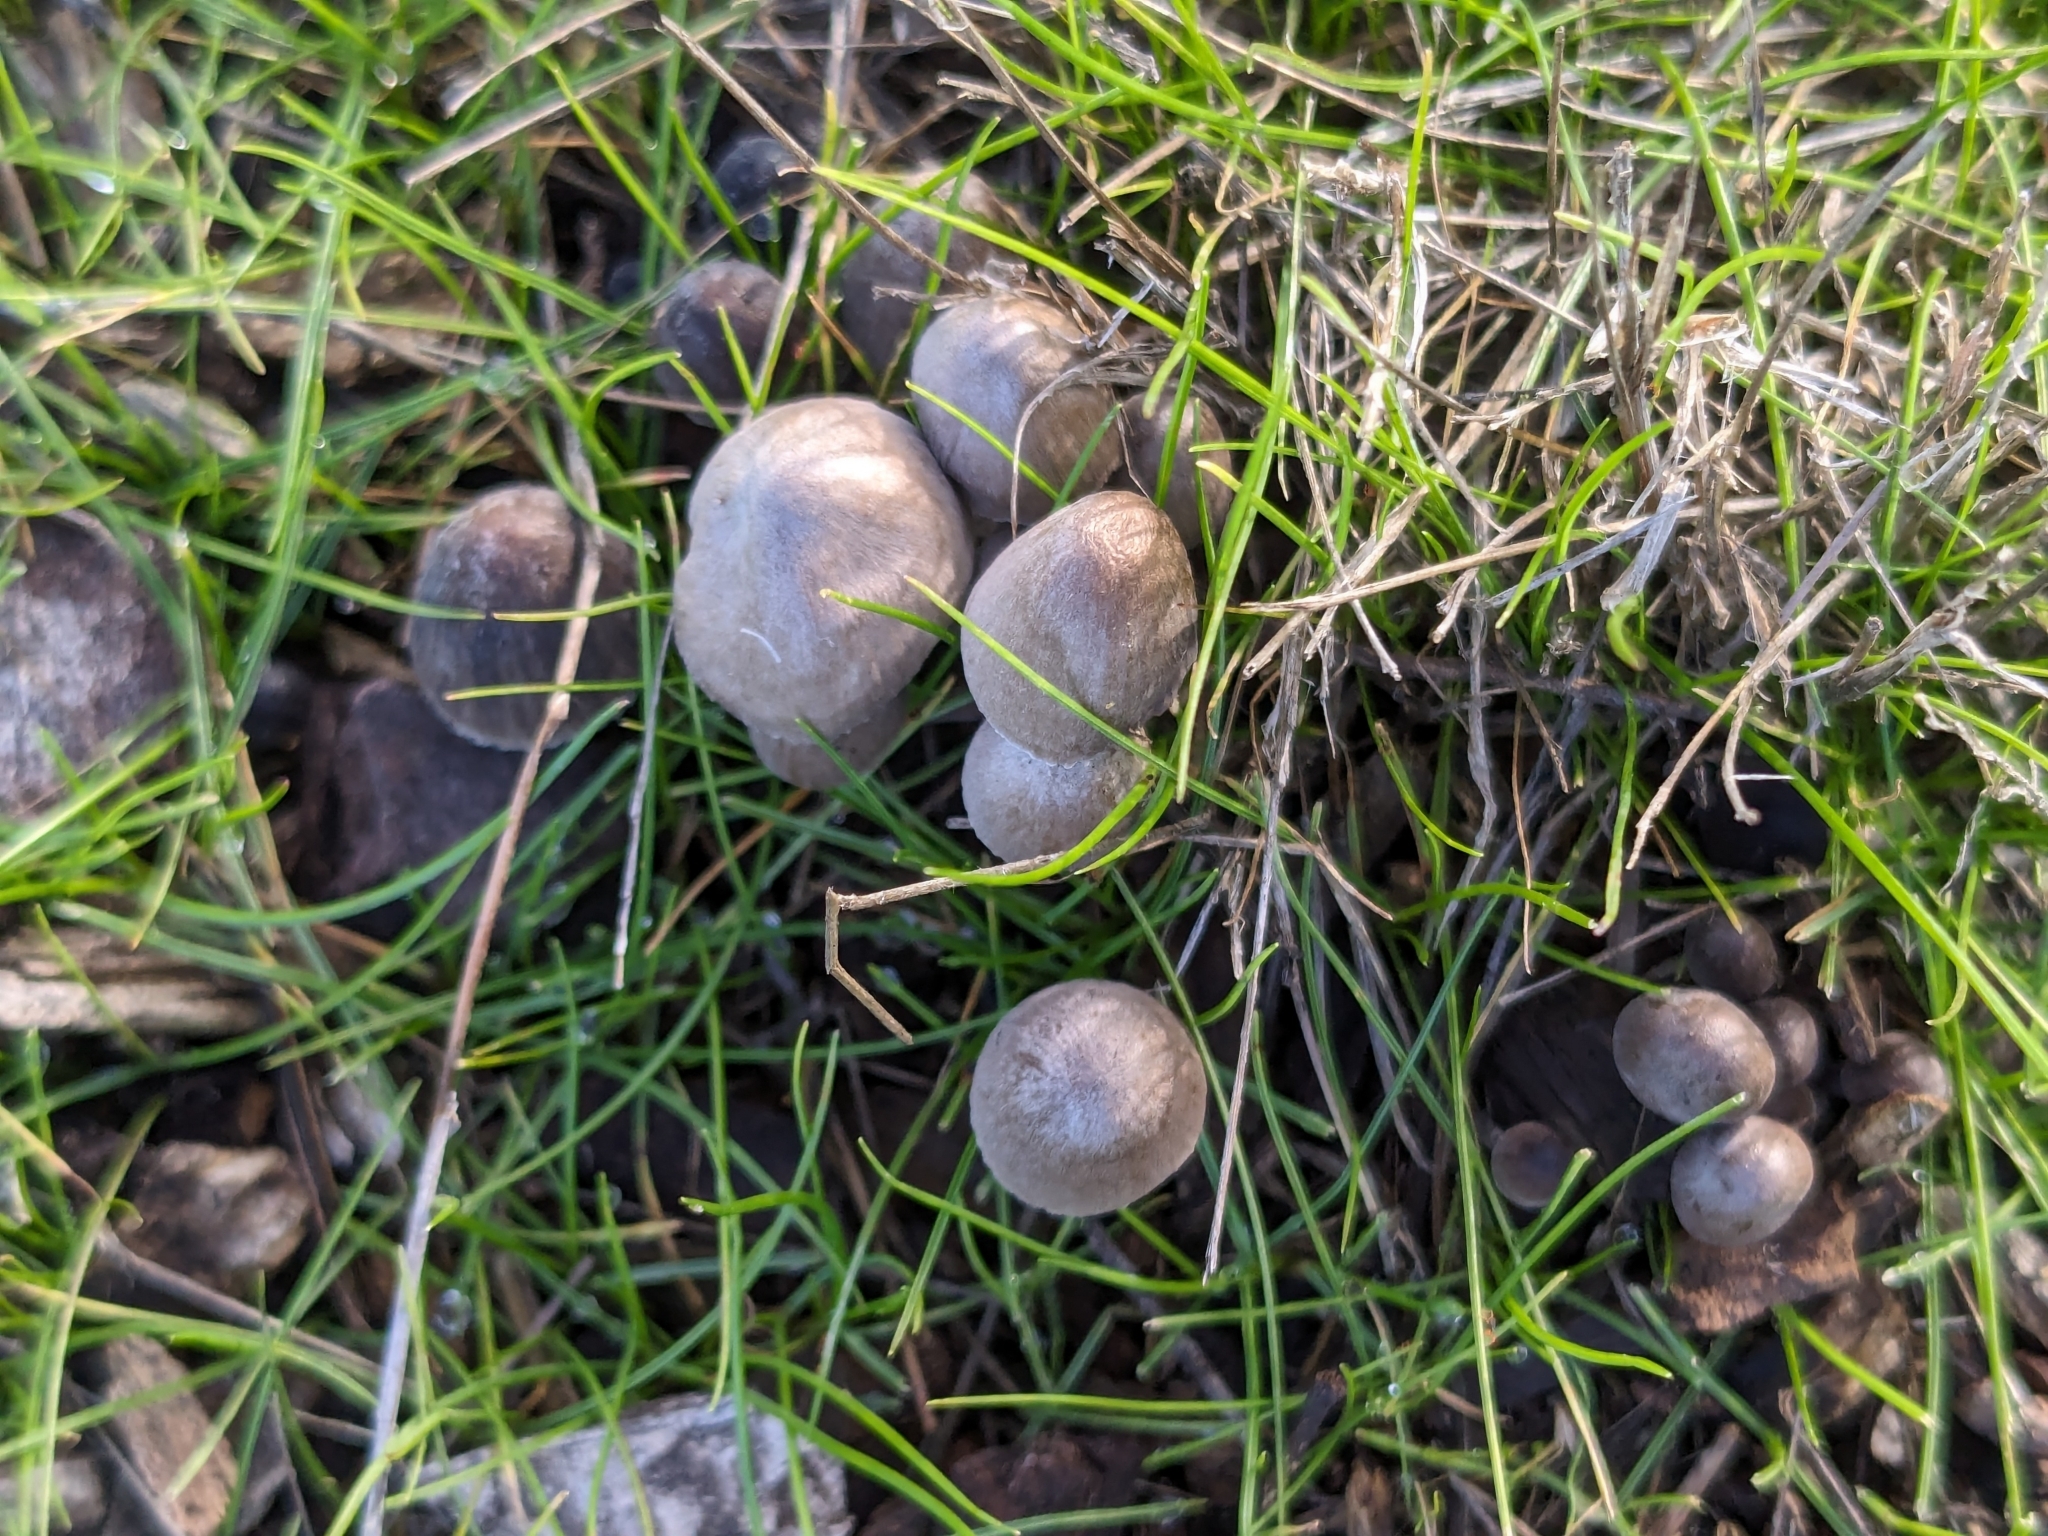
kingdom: Fungi
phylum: Basidiomycota
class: Agaricomycetes
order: Agaricales
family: Mycenaceae
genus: Mycena
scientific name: Mycena leptocephala
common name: Nitrous bonnet
